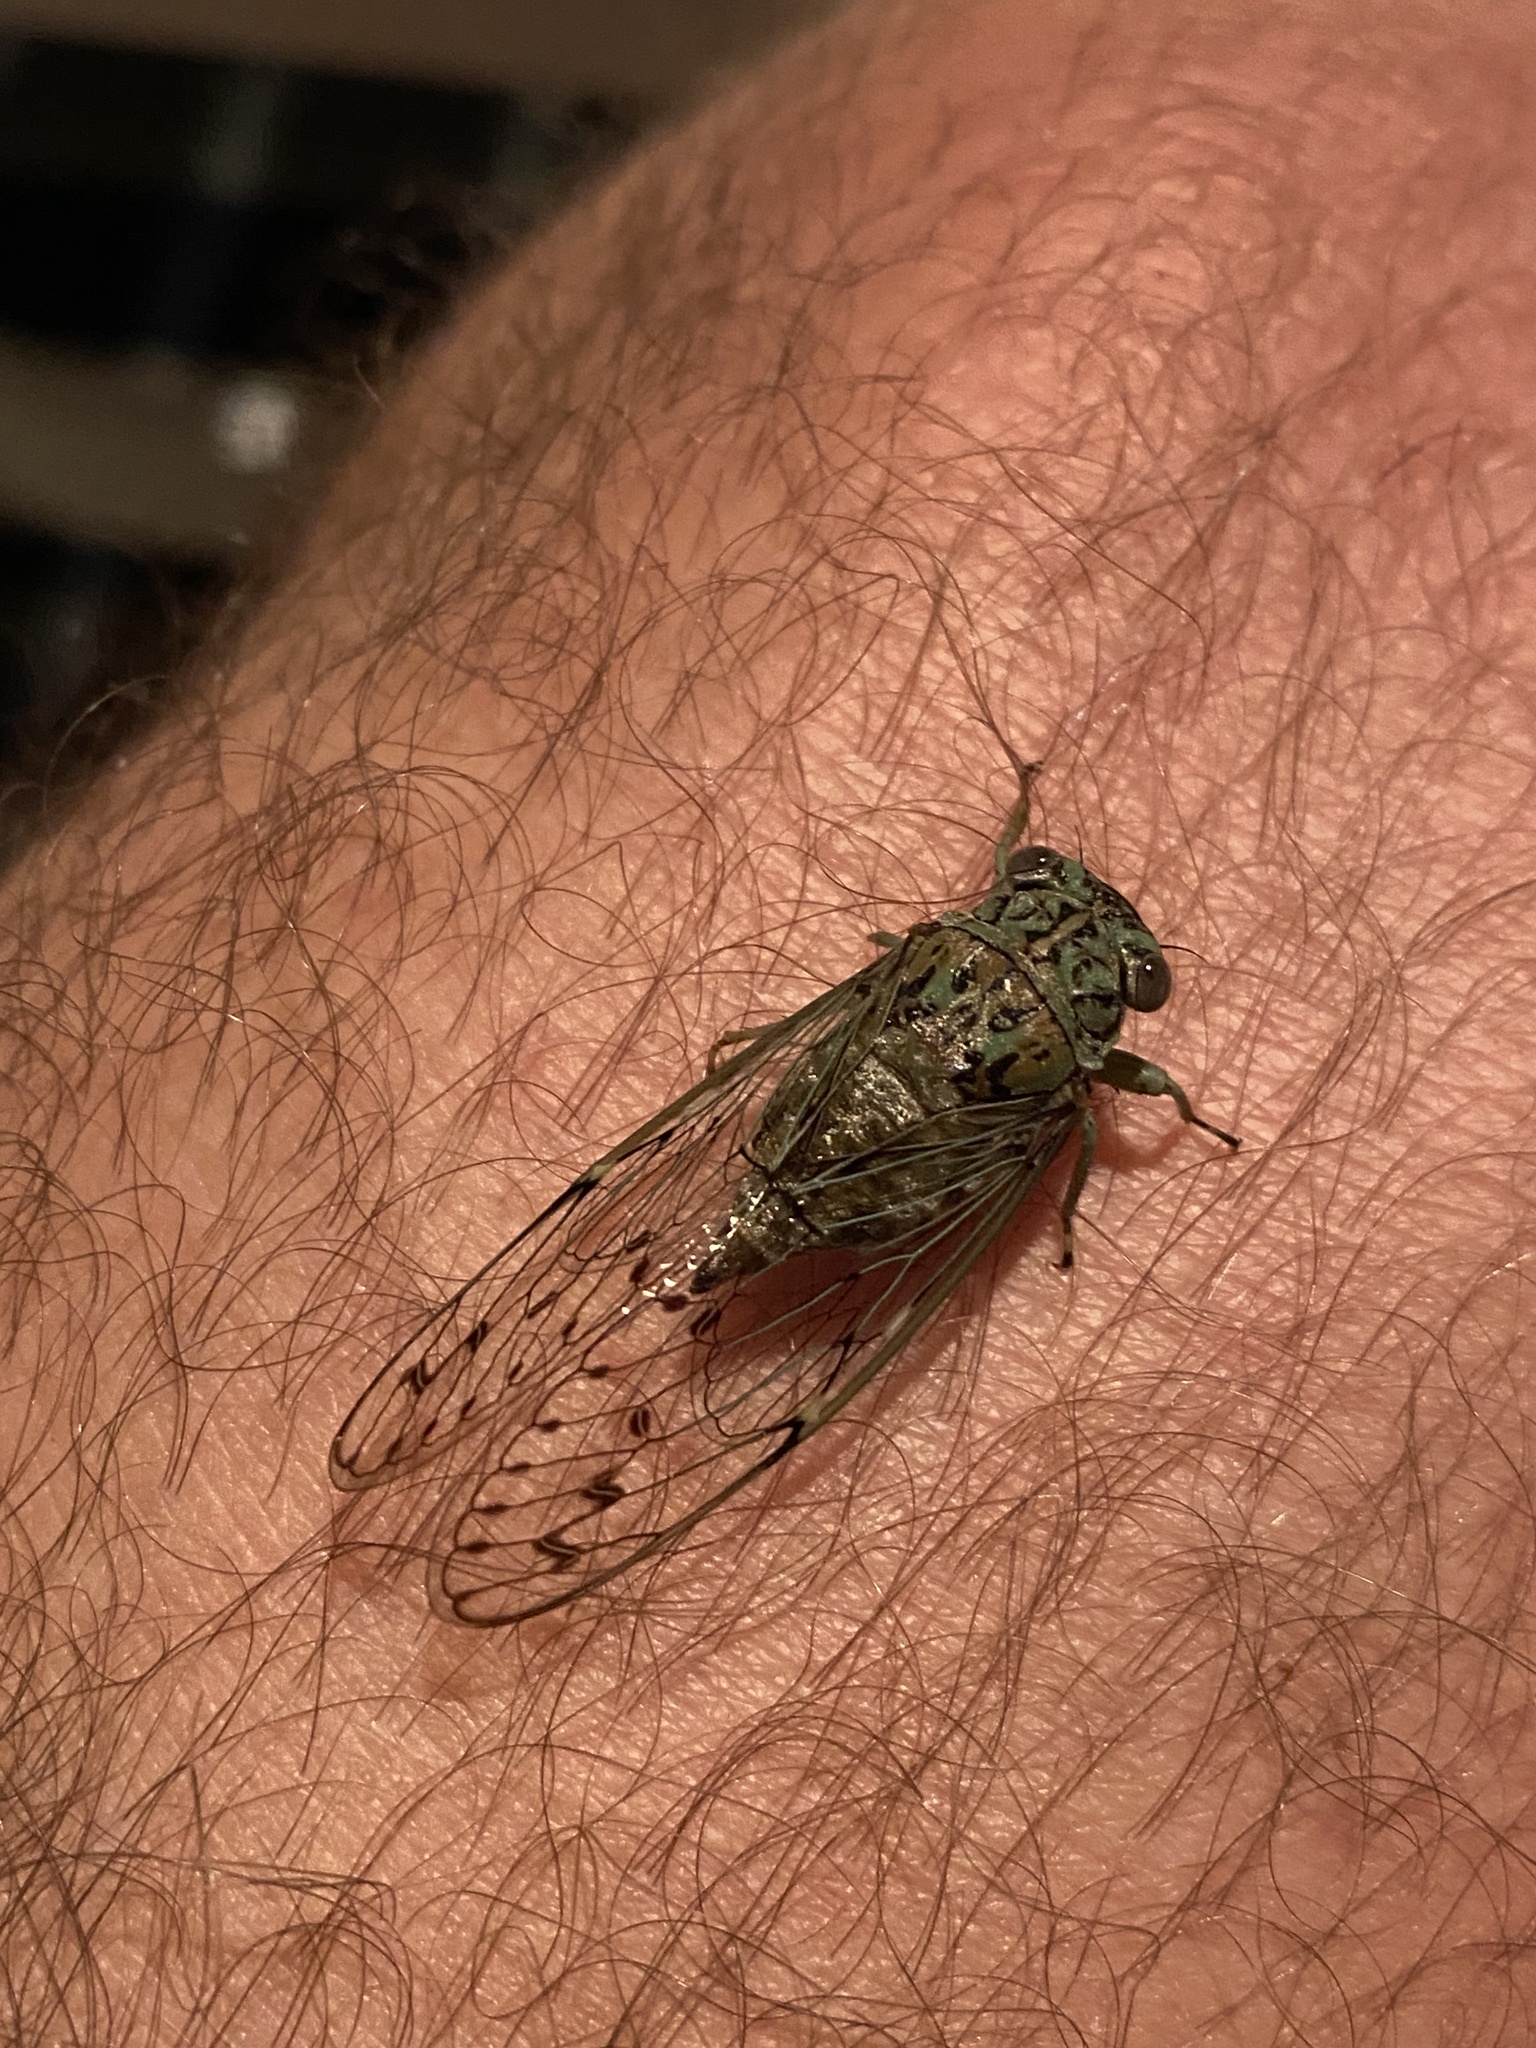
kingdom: Animalia
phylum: Arthropoda
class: Insecta
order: Hemiptera
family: Cicadidae
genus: Neocicada
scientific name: Neocicada hieroglyphica
